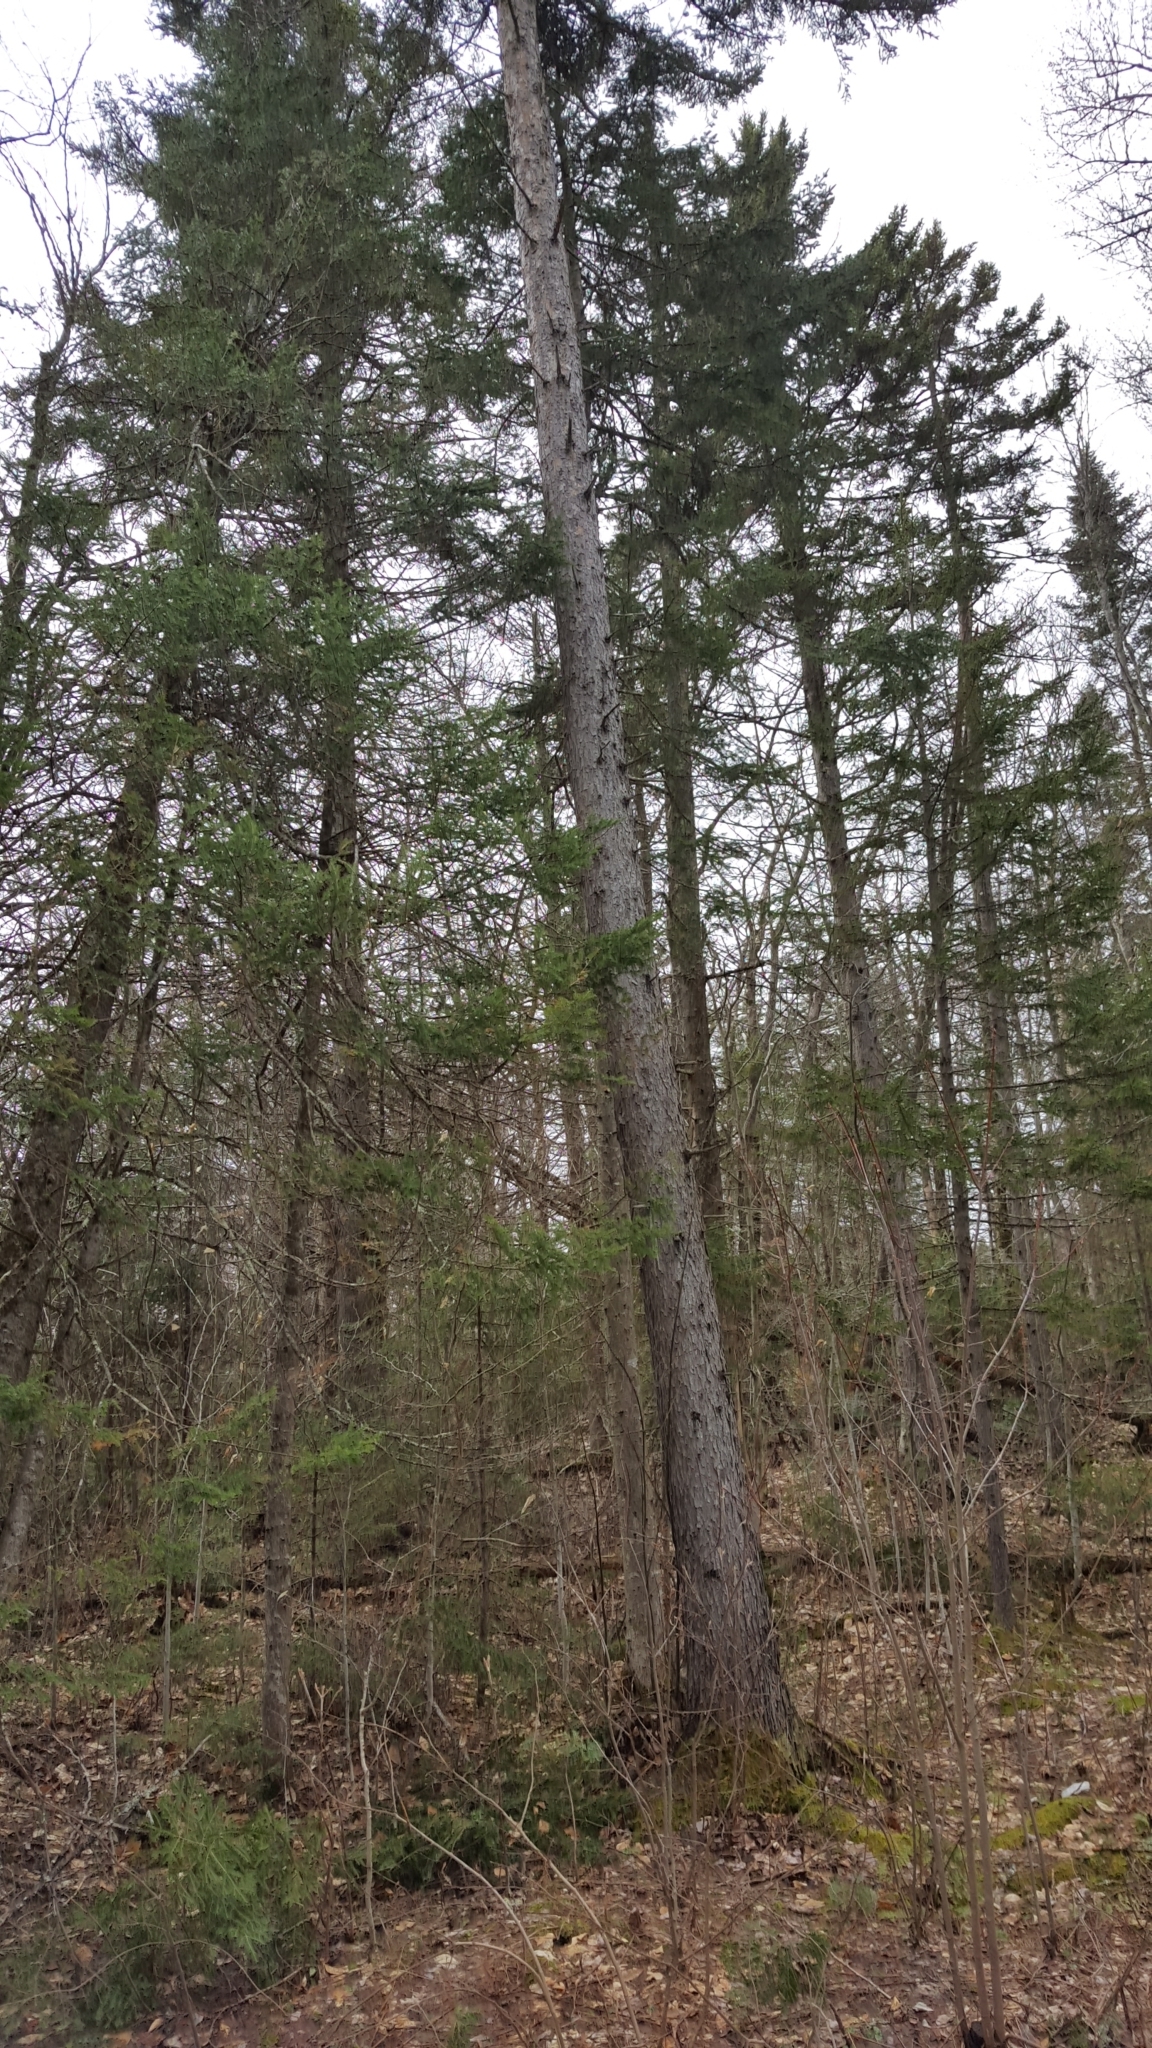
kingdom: Plantae
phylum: Tracheophyta
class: Pinopsida
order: Pinales
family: Pinaceae
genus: Picea
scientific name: Picea rubens
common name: Red spruce
